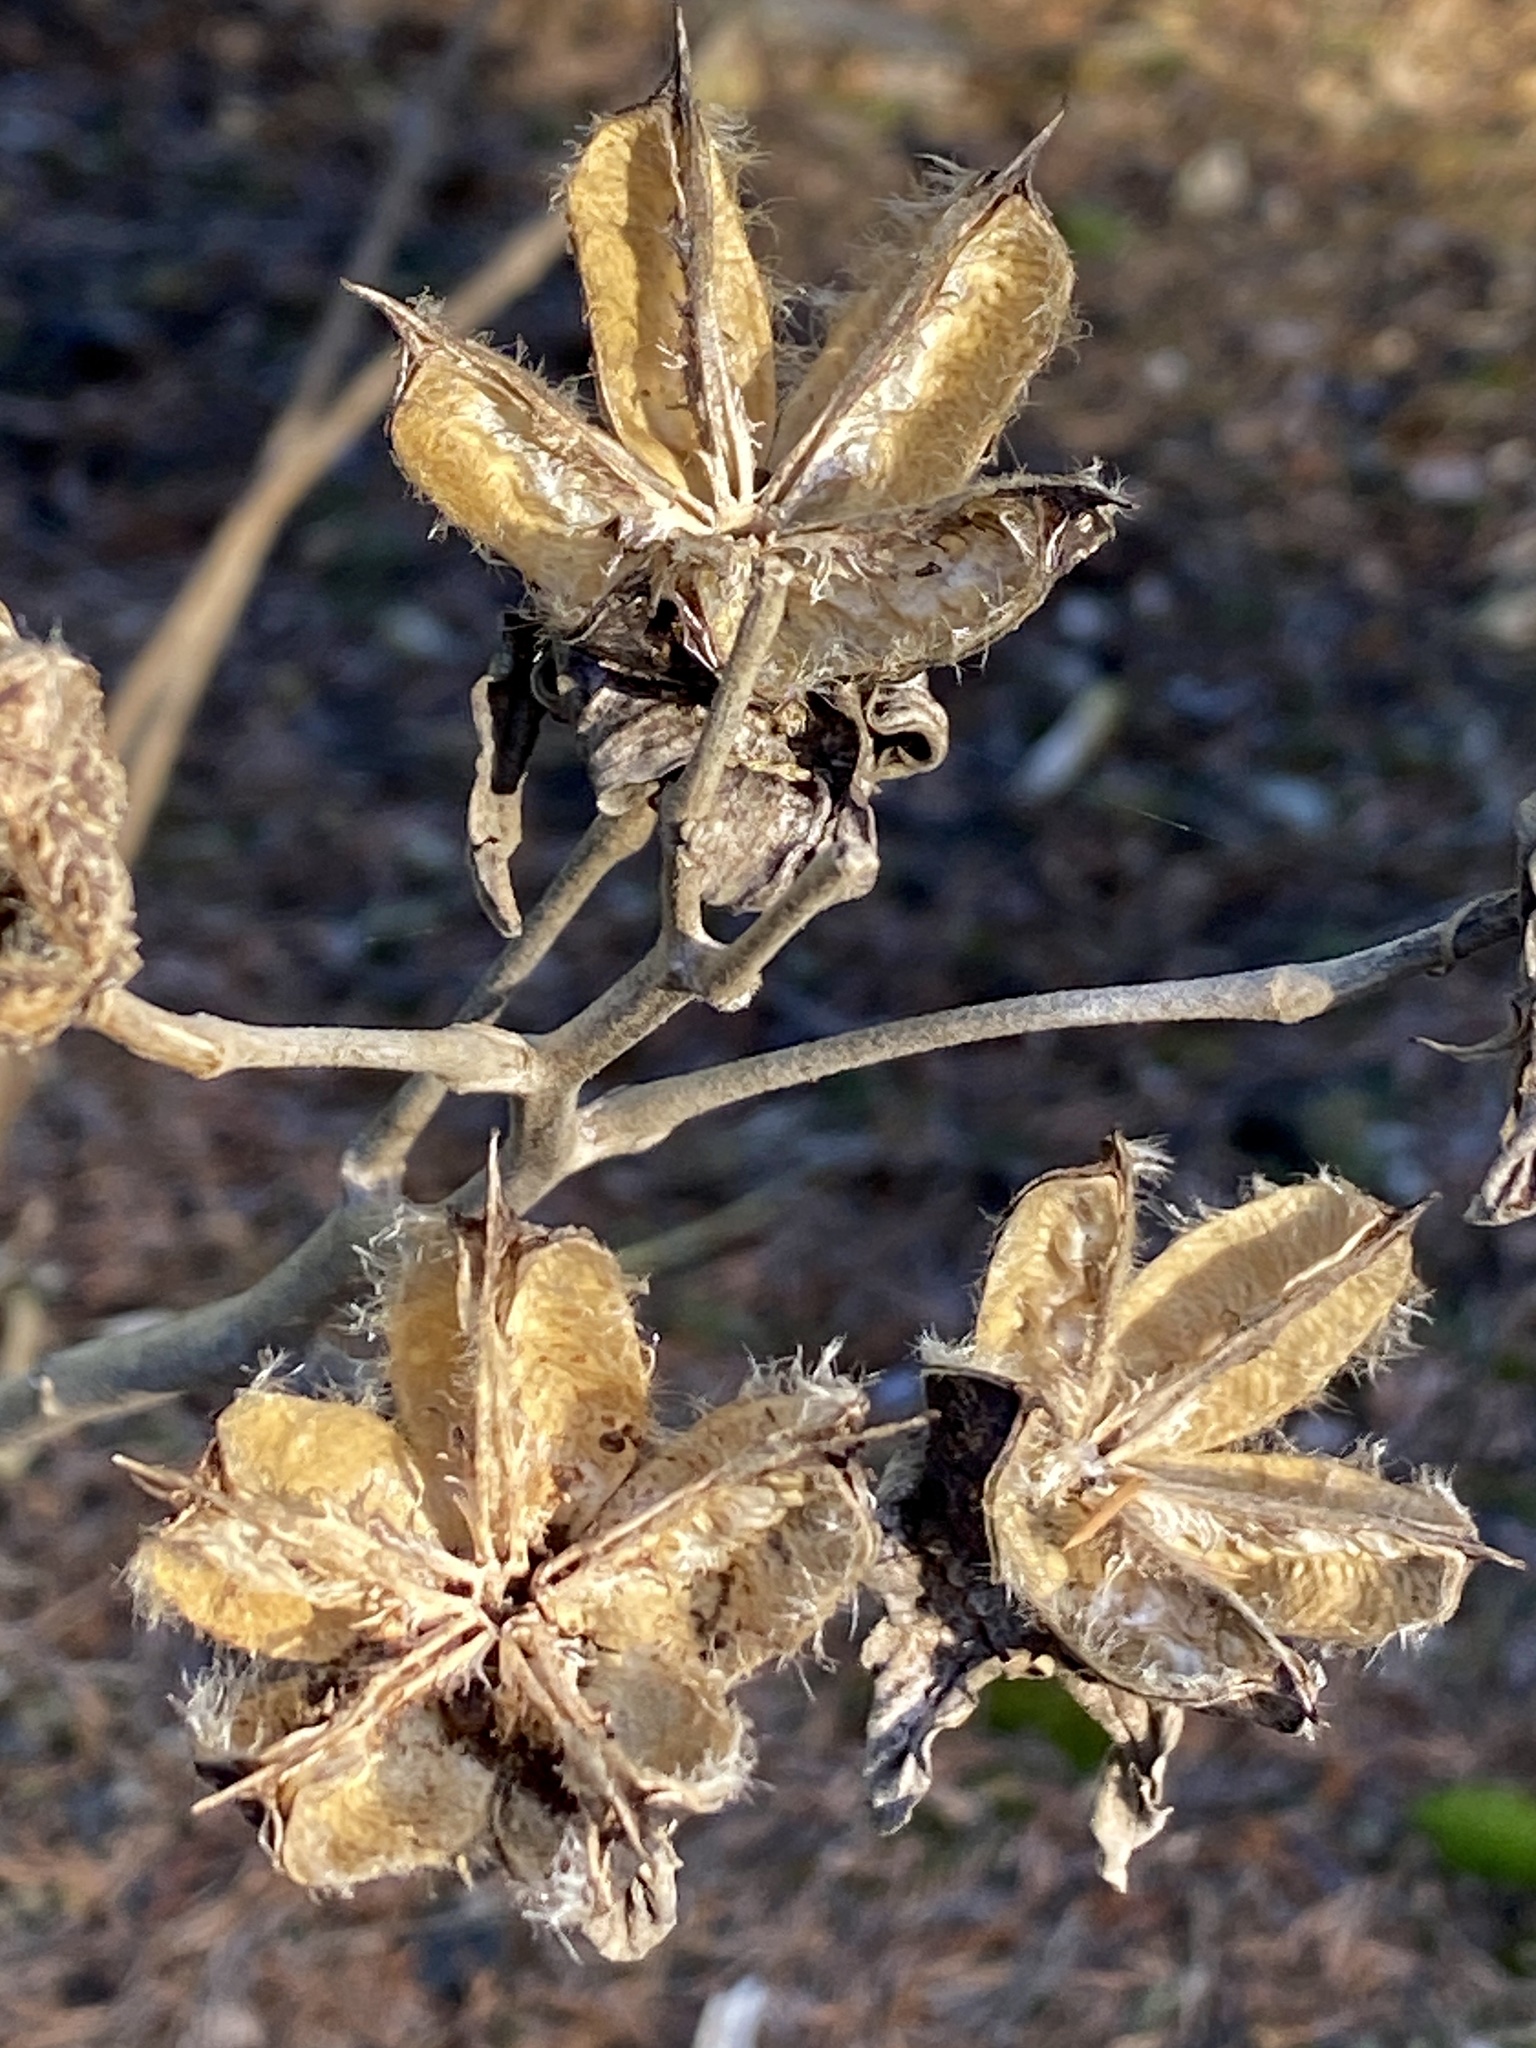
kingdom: Plantae
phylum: Tracheophyta
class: Magnoliopsida
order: Malvales
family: Malvaceae
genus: Hibiscus
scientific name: Hibiscus moscheutos
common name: Common rose-mallow
